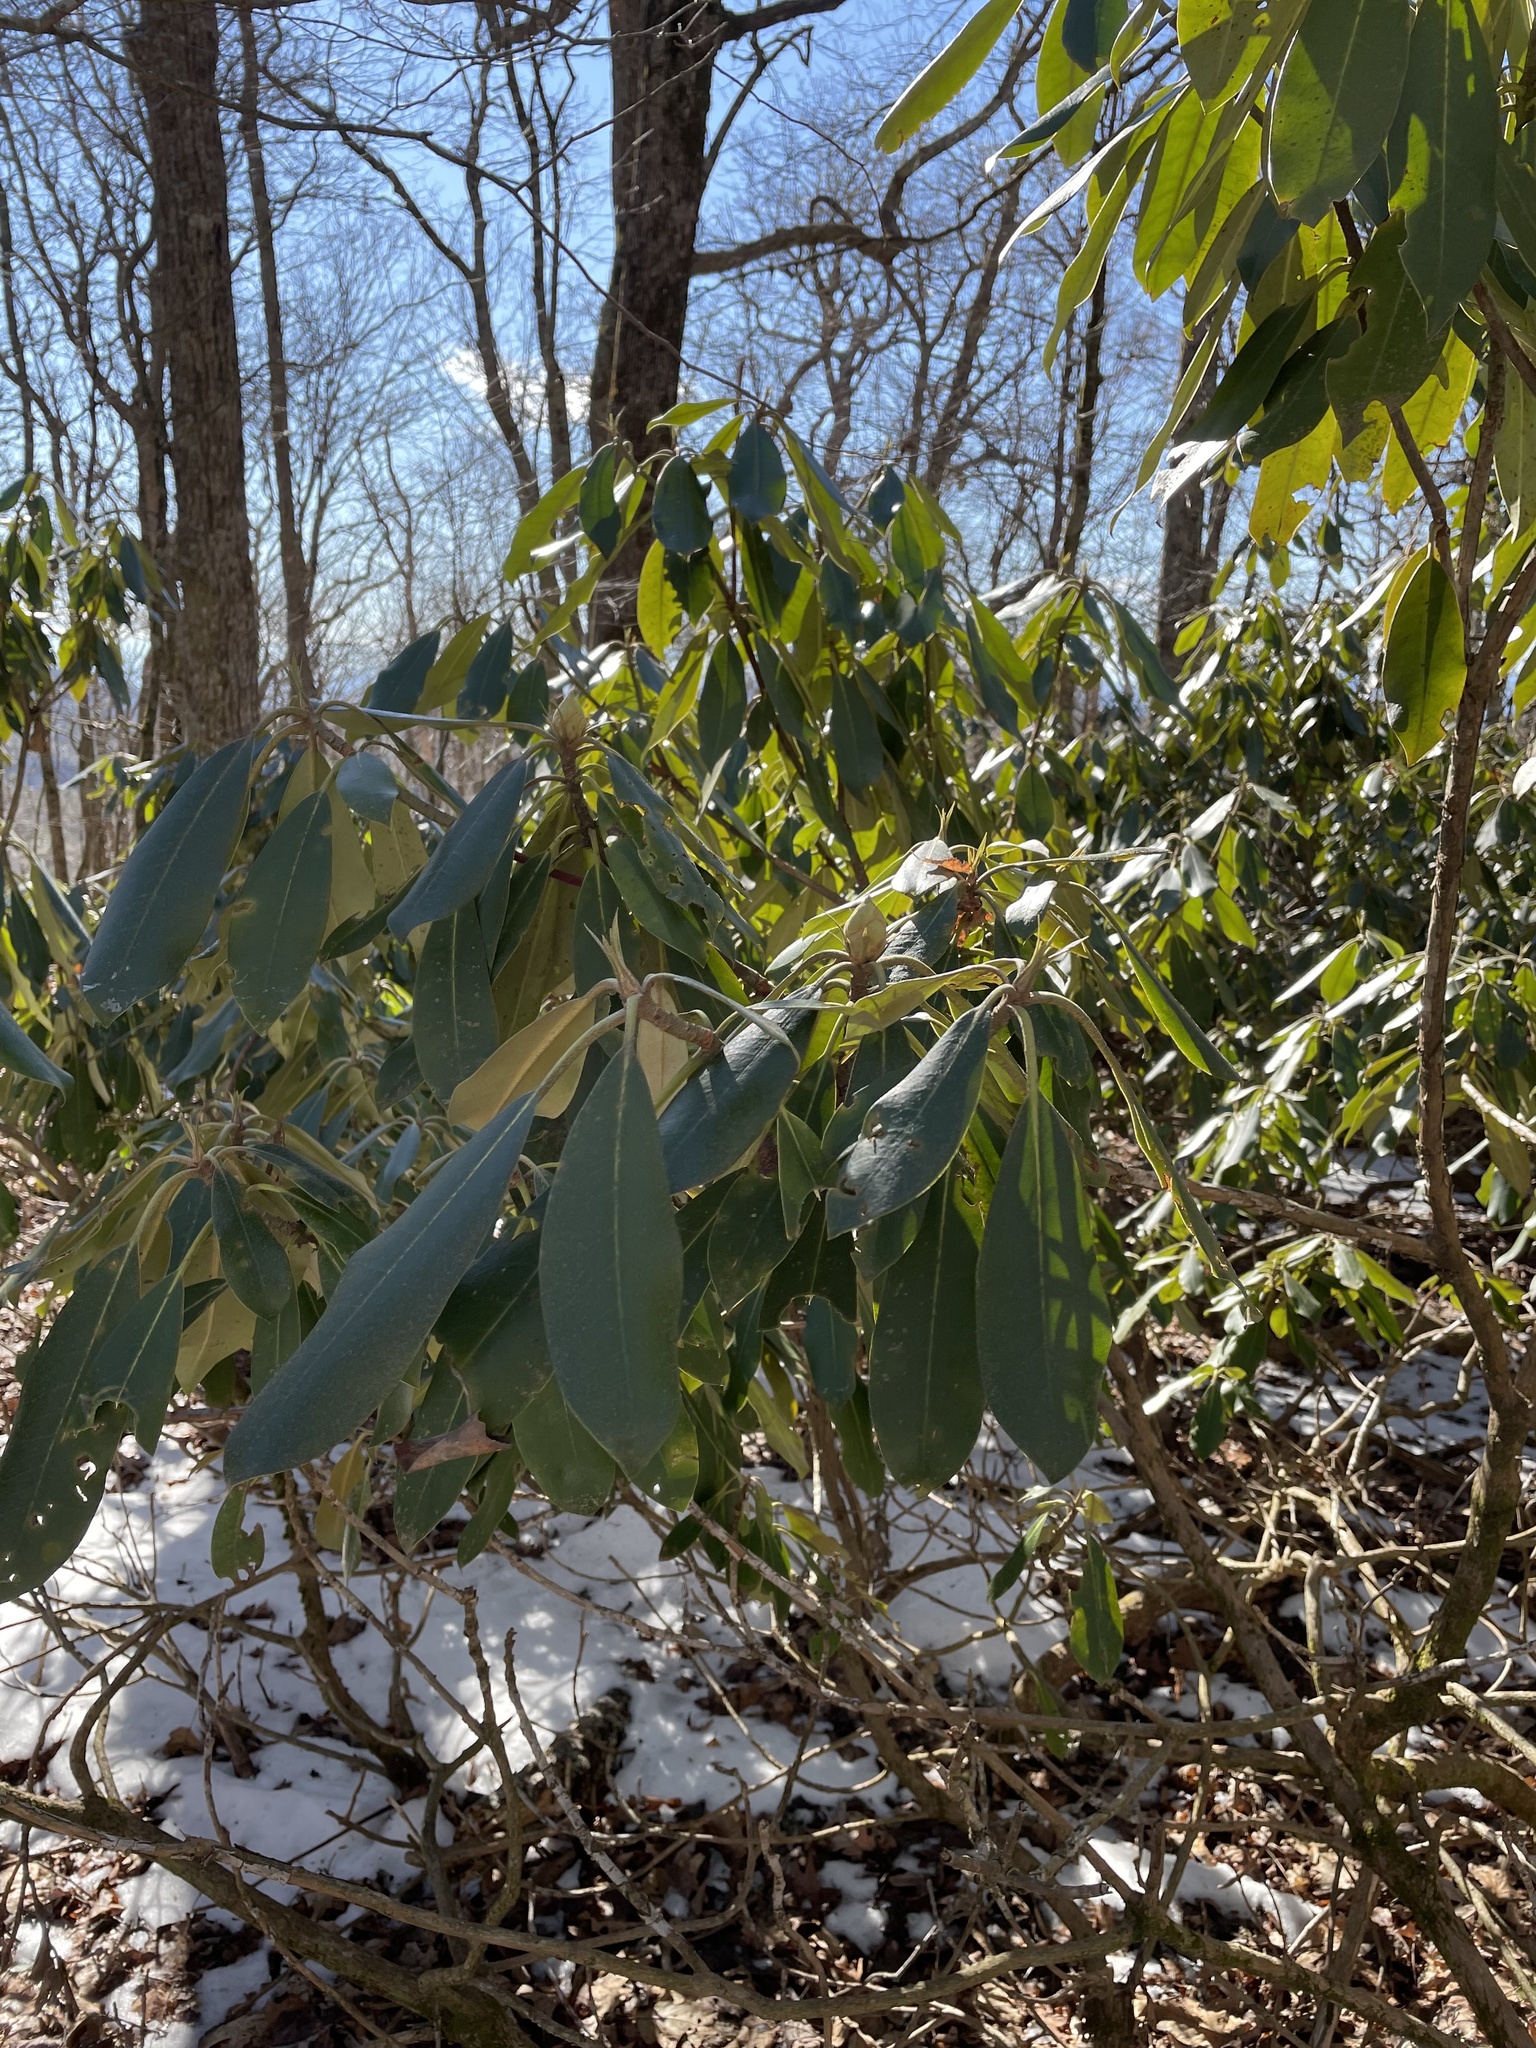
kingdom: Plantae
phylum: Tracheophyta
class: Magnoliopsida
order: Ericales
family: Ericaceae
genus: Rhododendron
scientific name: Rhododendron maximum
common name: Great rhododendron
